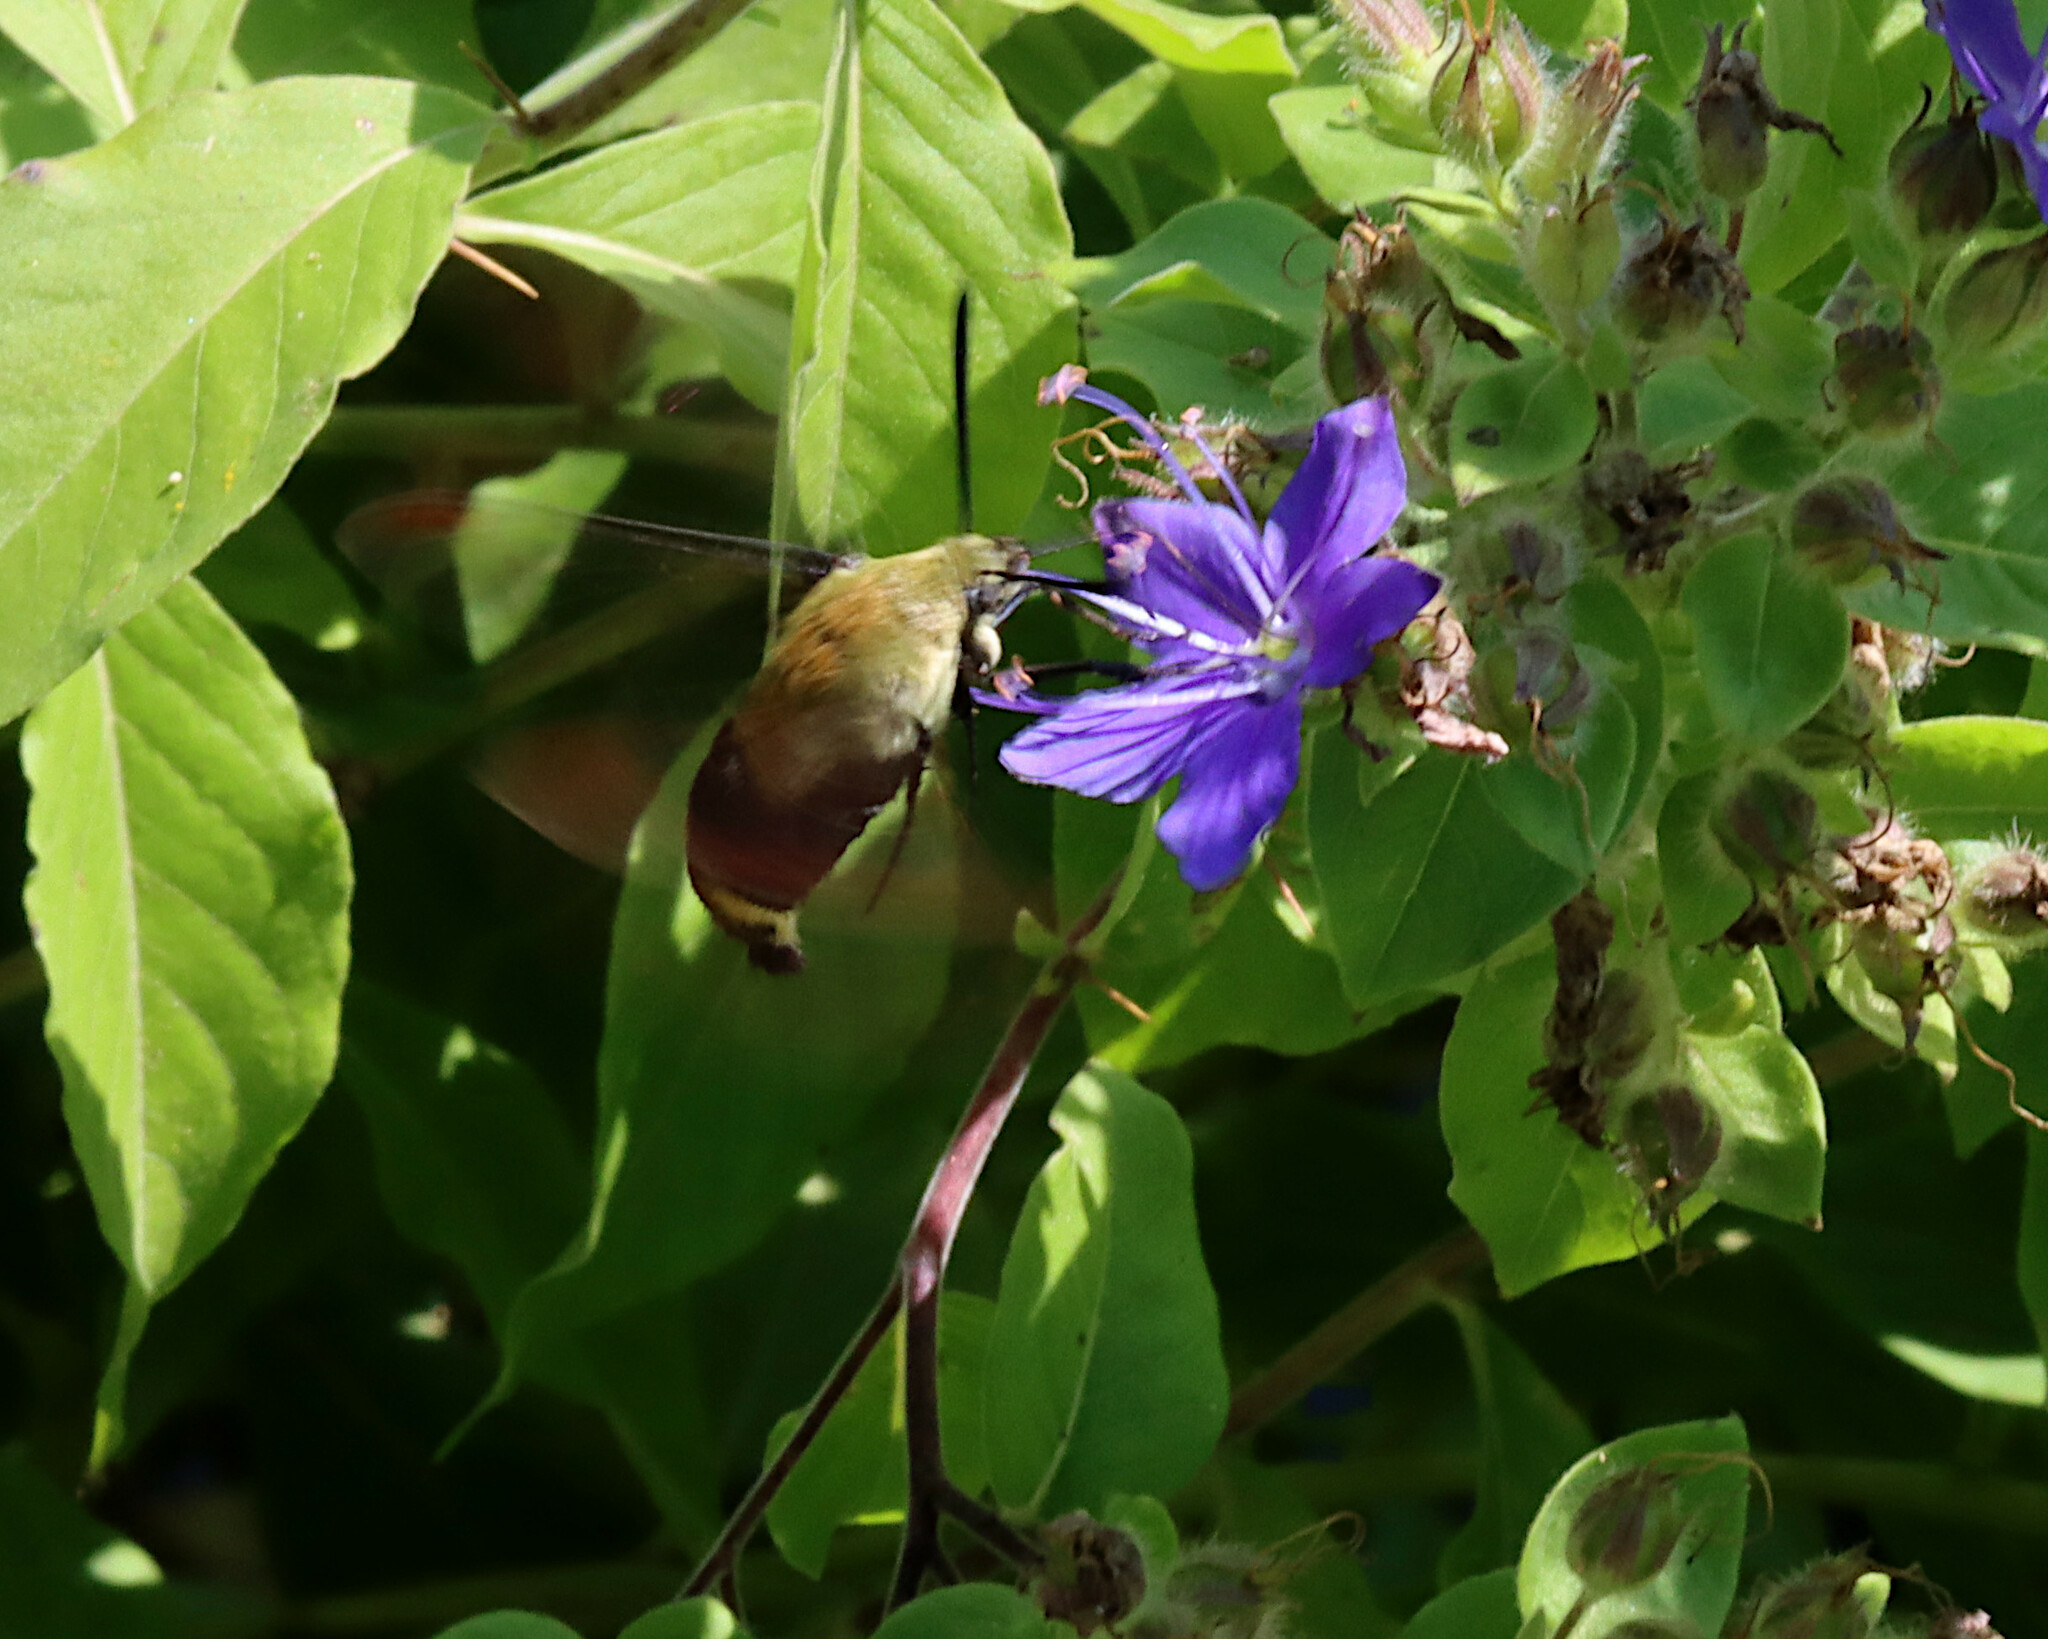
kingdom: Animalia
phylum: Arthropoda
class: Insecta
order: Lepidoptera
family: Sphingidae
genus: Hemaris
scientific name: Hemaris diffinis
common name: Bumblebee moth
